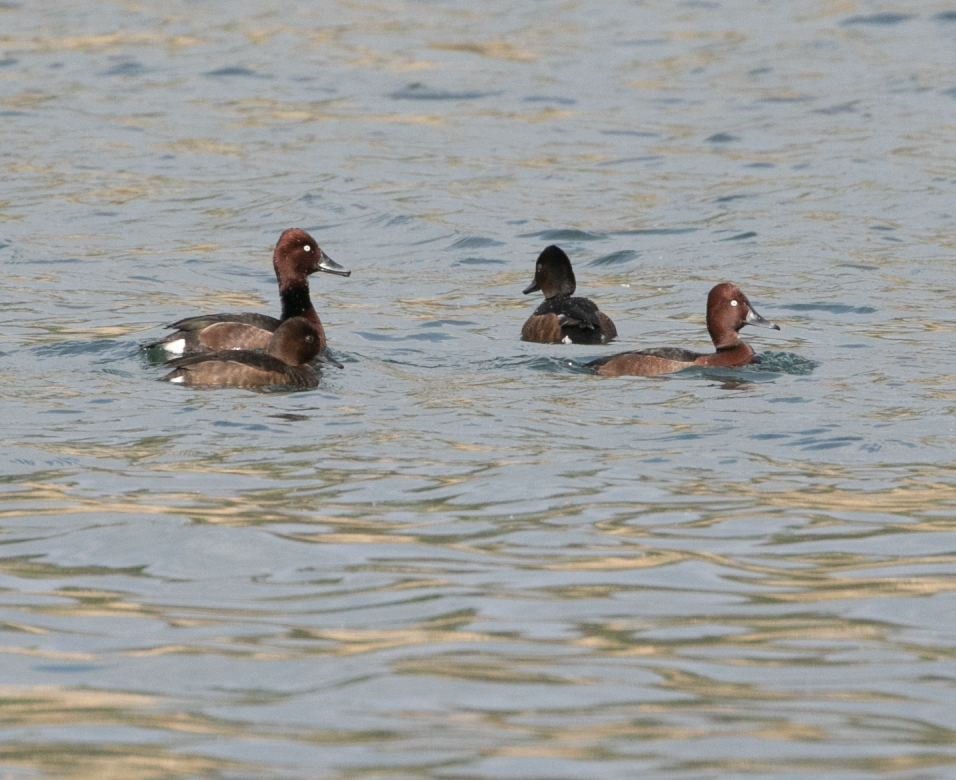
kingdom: Animalia
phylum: Chordata
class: Aves
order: Anseriformes
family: Anatidae
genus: Aythya
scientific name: Aythya nyroca
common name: Ferruginous duck
